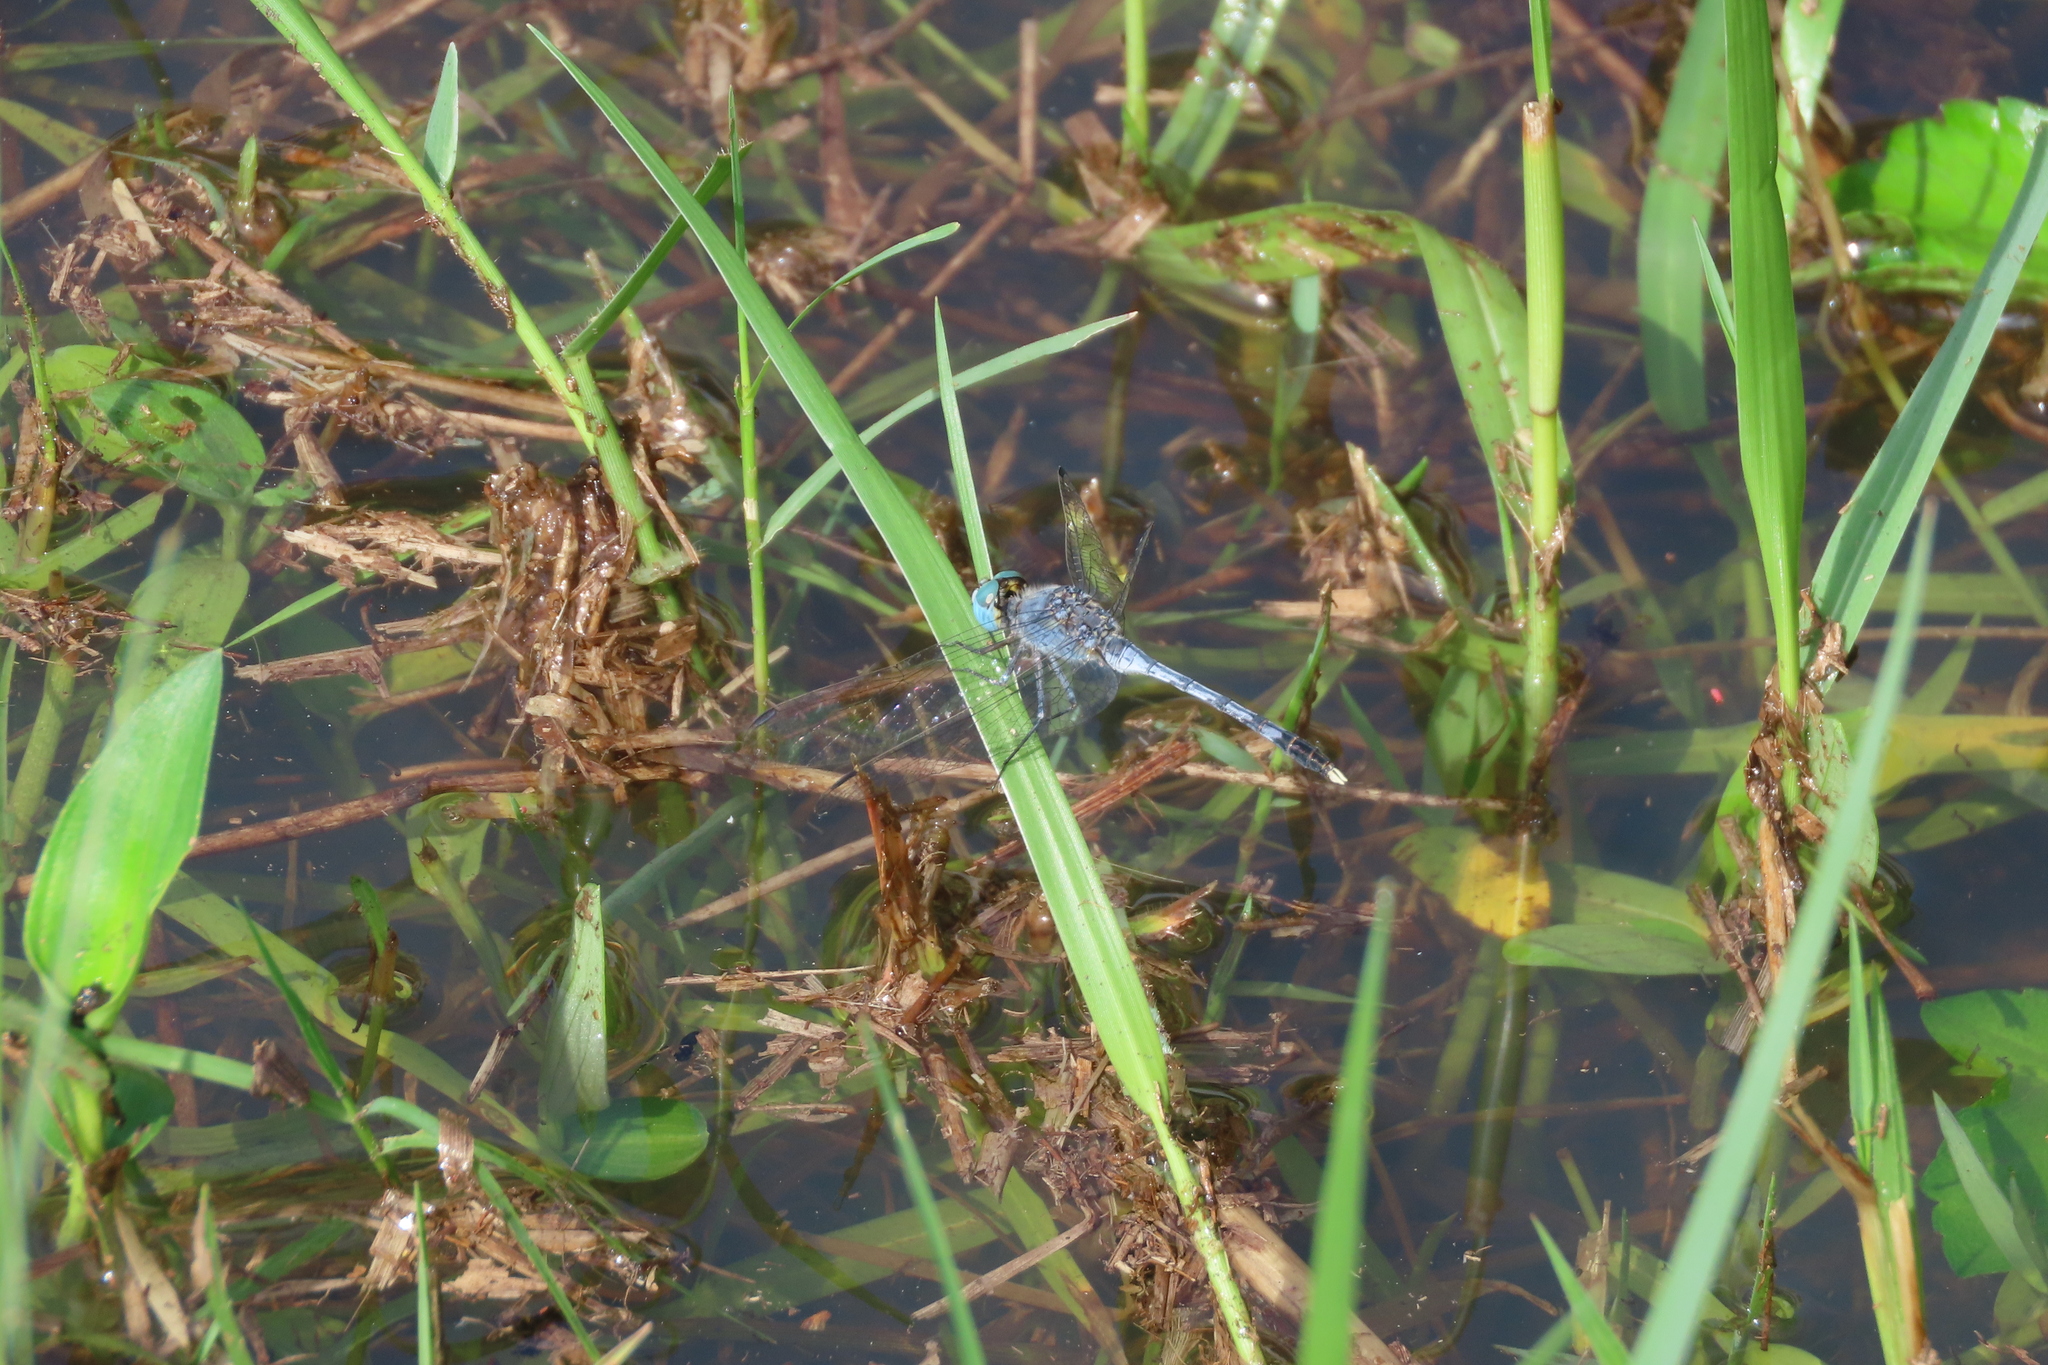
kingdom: Animalia
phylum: Arthropoda
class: Insecta
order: Odonata
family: Libellulidae
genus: Diplacodes
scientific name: Diplacodes trivialis
